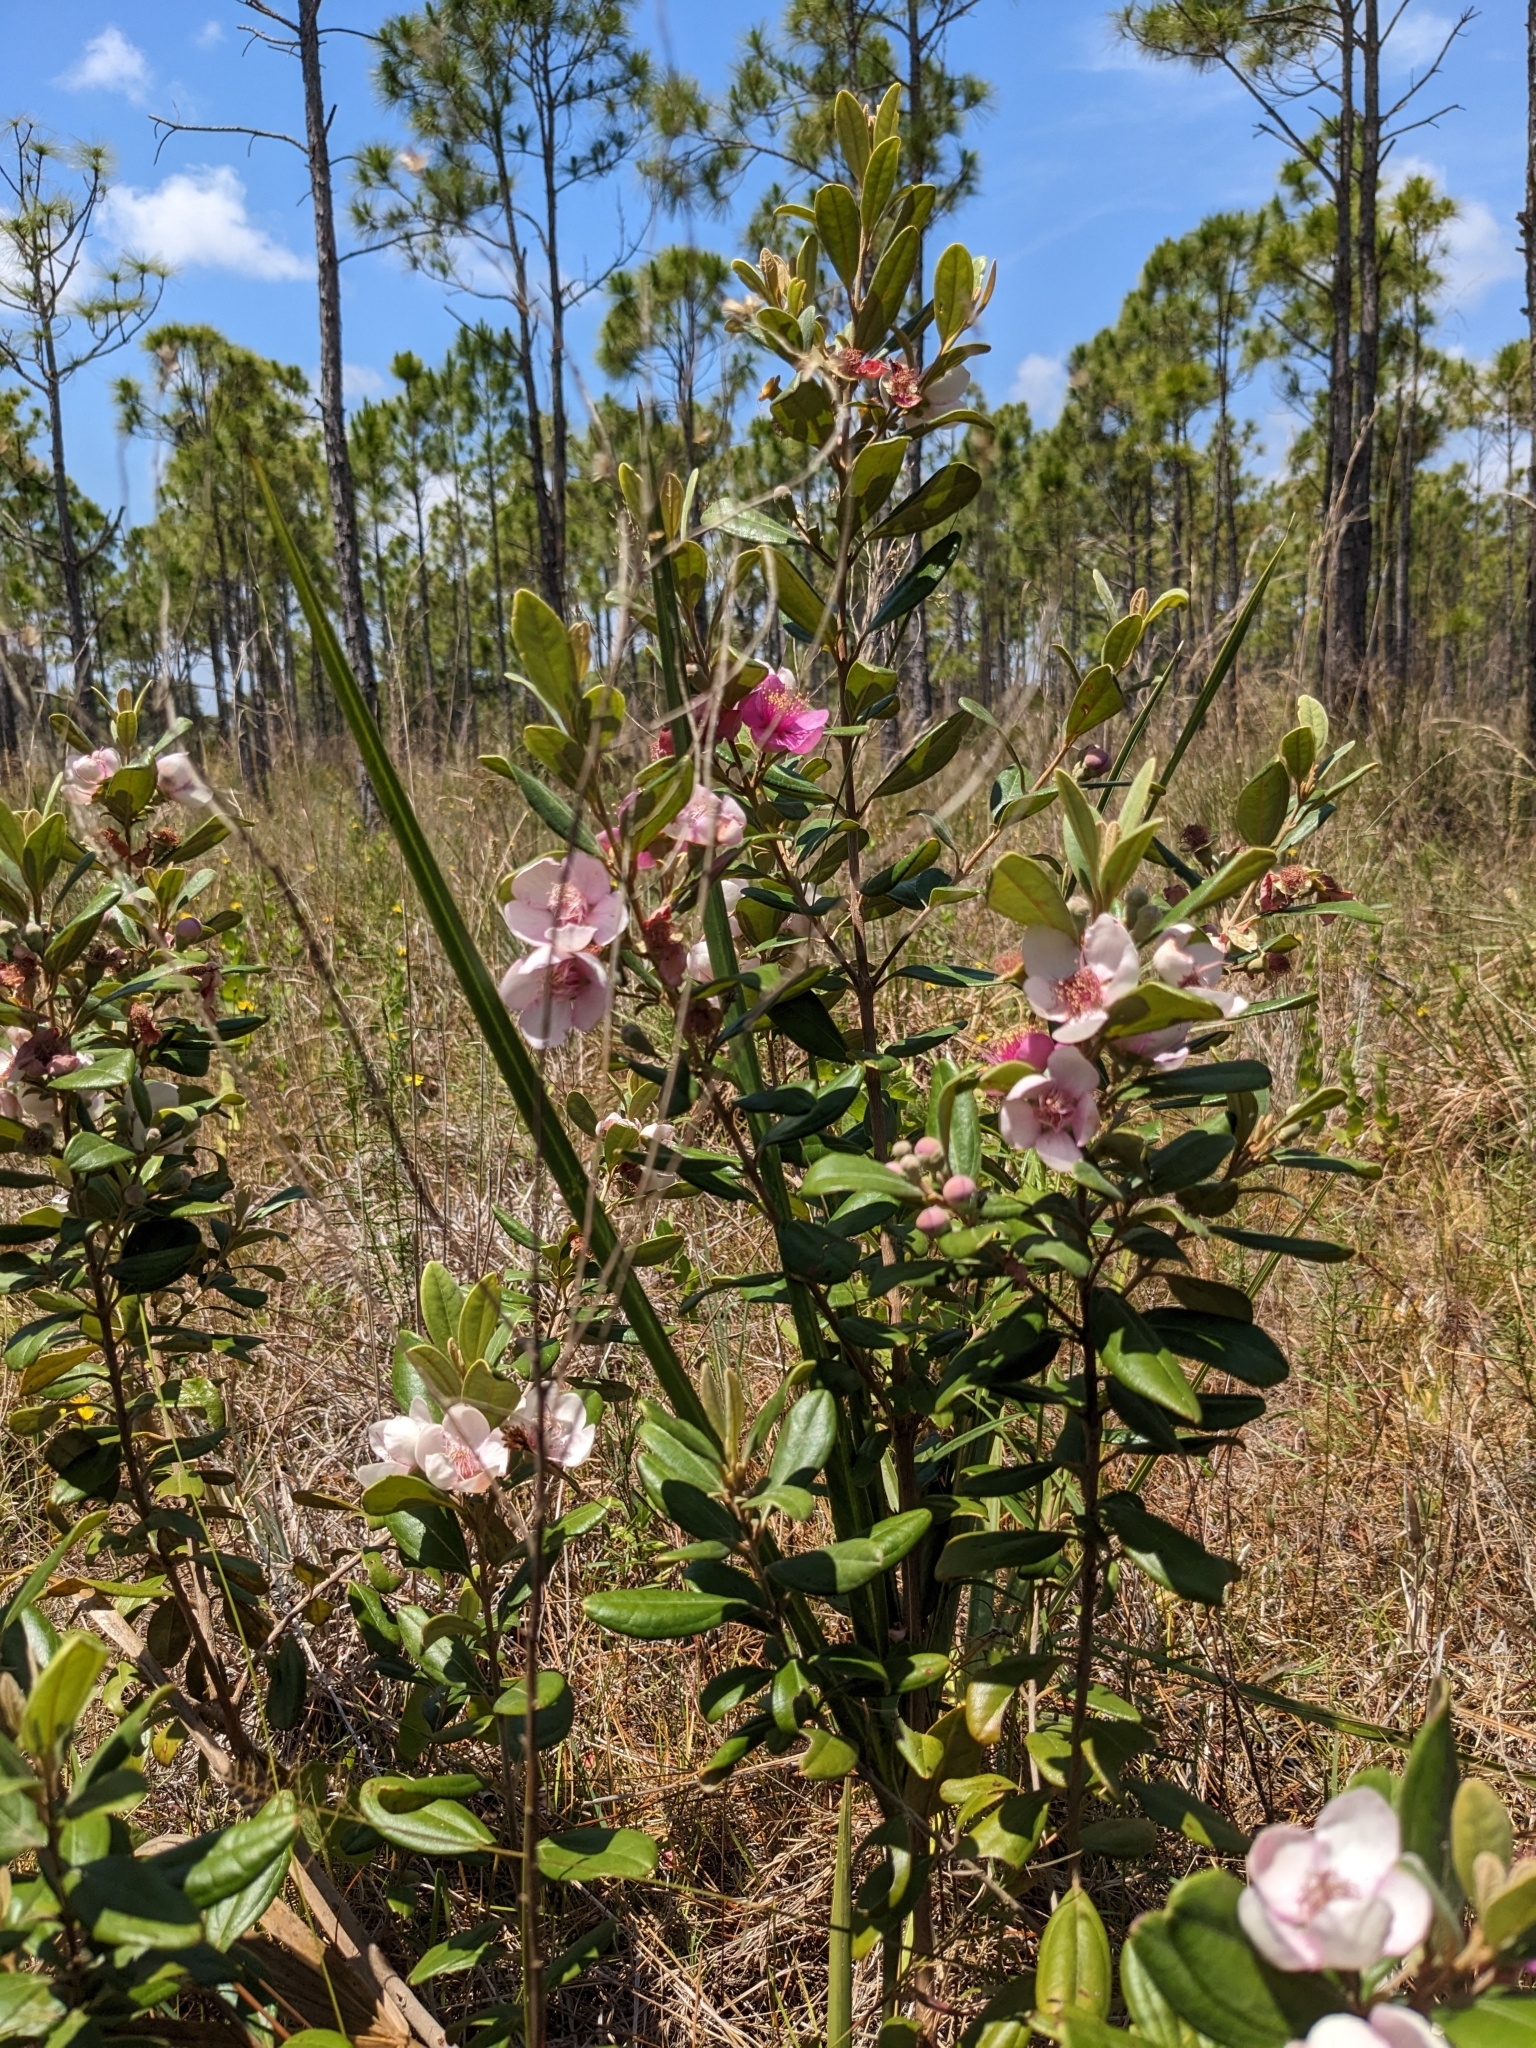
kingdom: Plantae
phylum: Tracheophyta
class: Magnoliopsida
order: Myrtales
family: Myrtaceae
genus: Rhodomyrtus
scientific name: Rhodomyrtus tomentosa
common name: Rose myrtle
